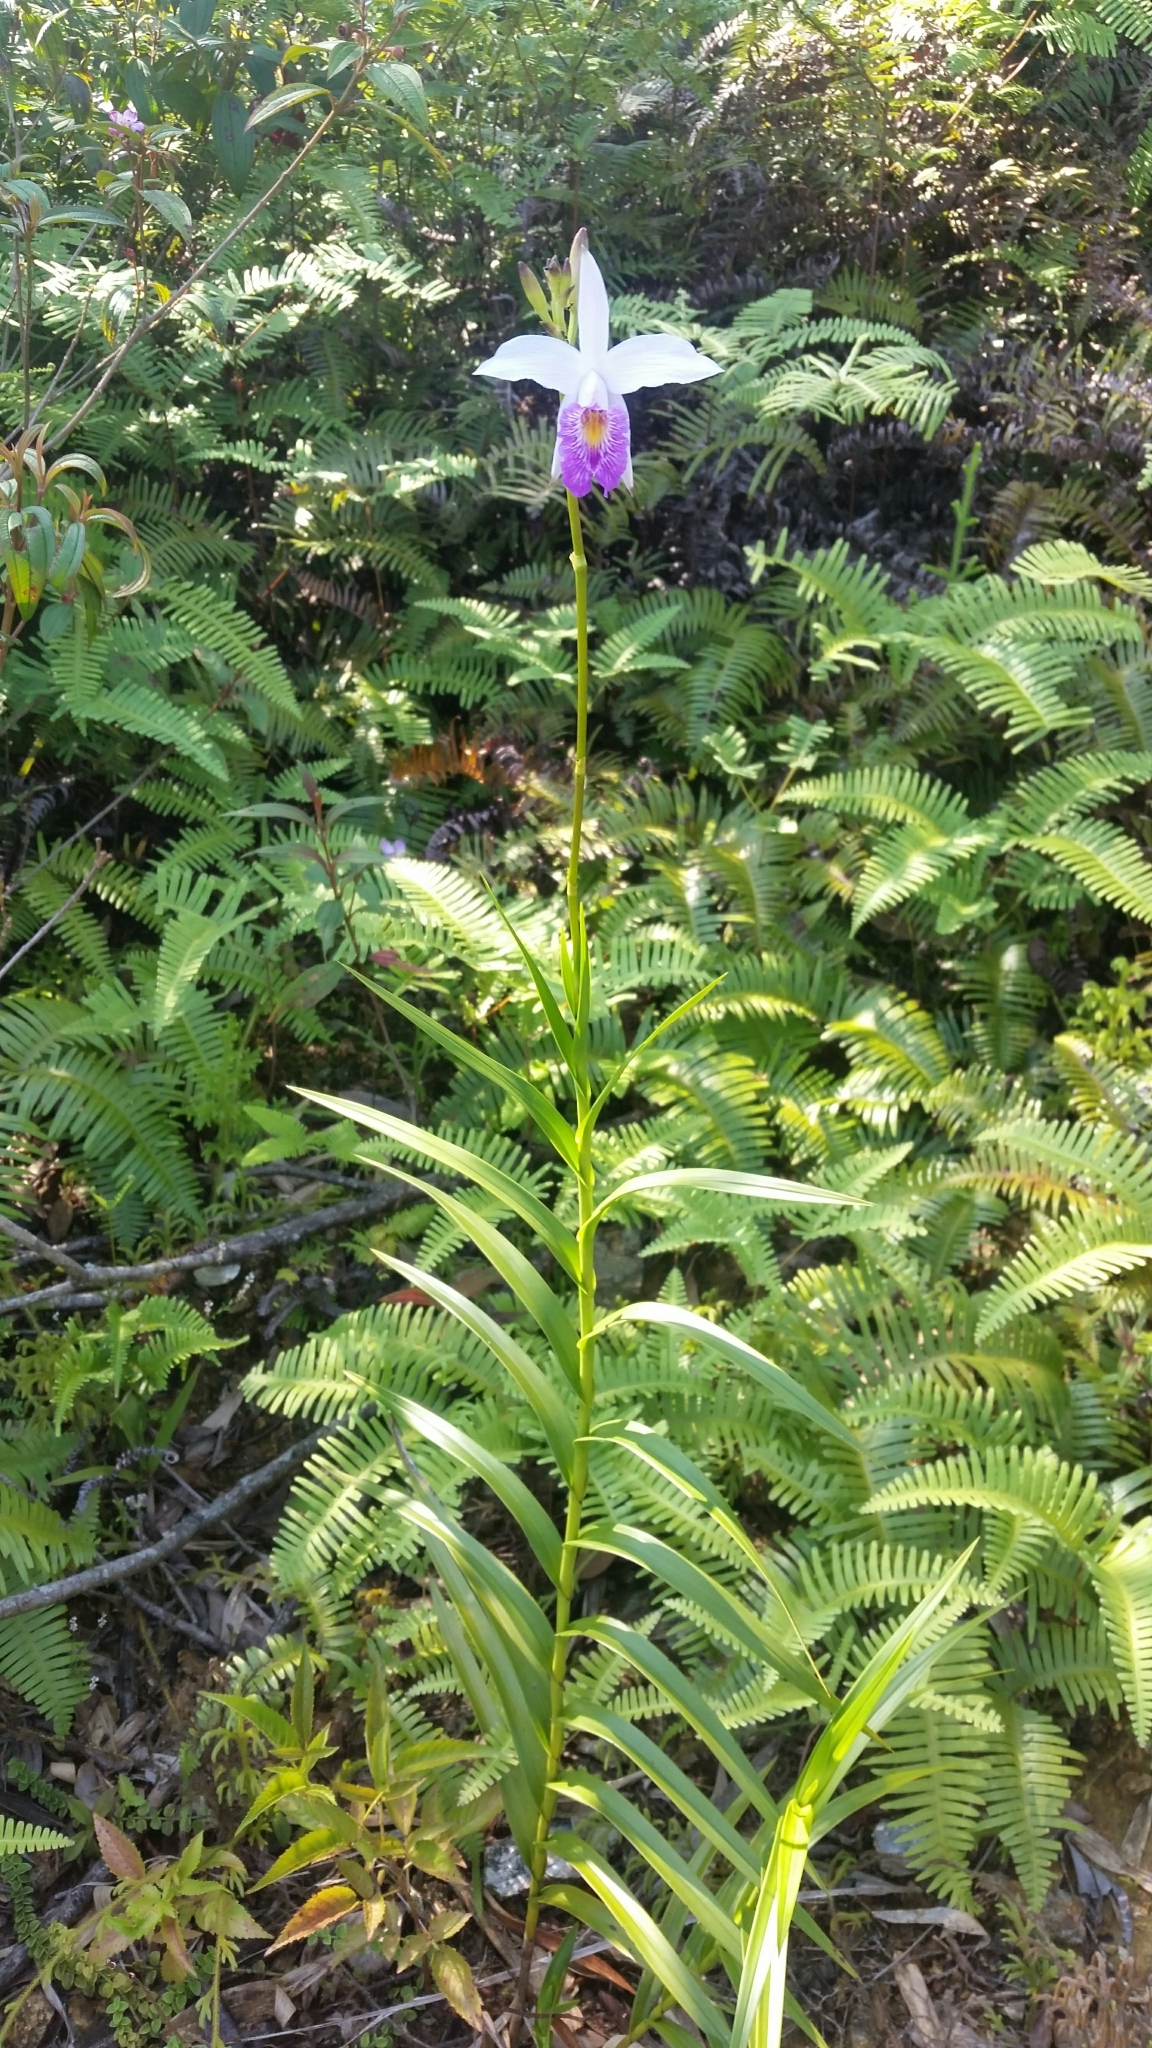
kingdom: Plantae
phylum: Tracheophyta
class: Liliopsida
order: Asparagales
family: Orchidaceae
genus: Arundina
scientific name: Arundina graminifolia
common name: Bamboo orchid
